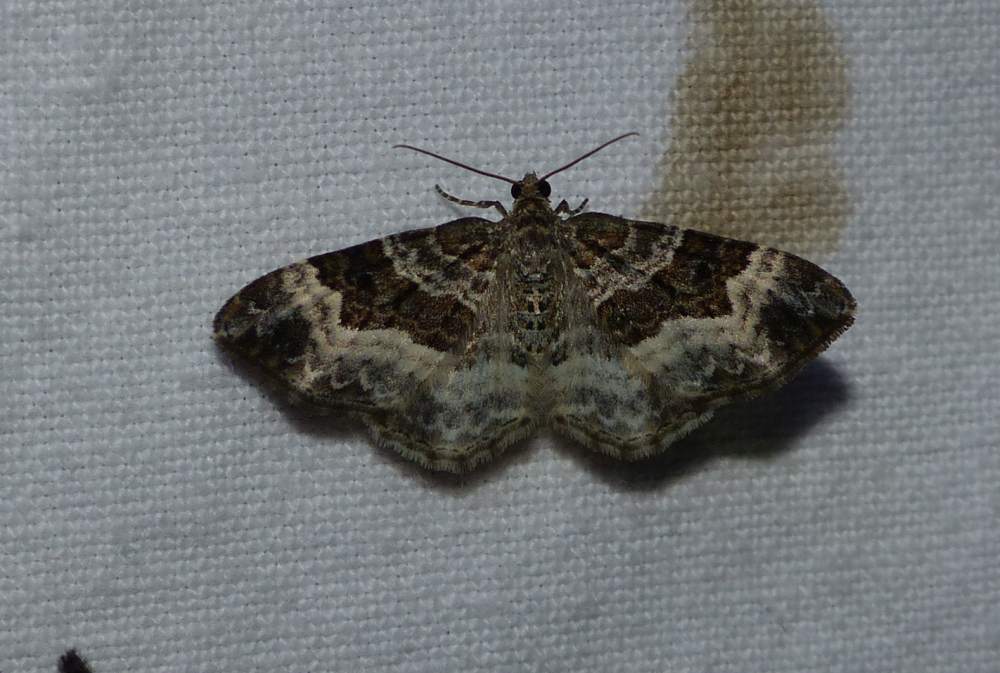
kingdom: Animalia
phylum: Arthropoda
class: Insecta
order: Lepidoptera
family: Geometridae
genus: Epirrhoe
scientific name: Epirrhoe alternata
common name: Common carpet
